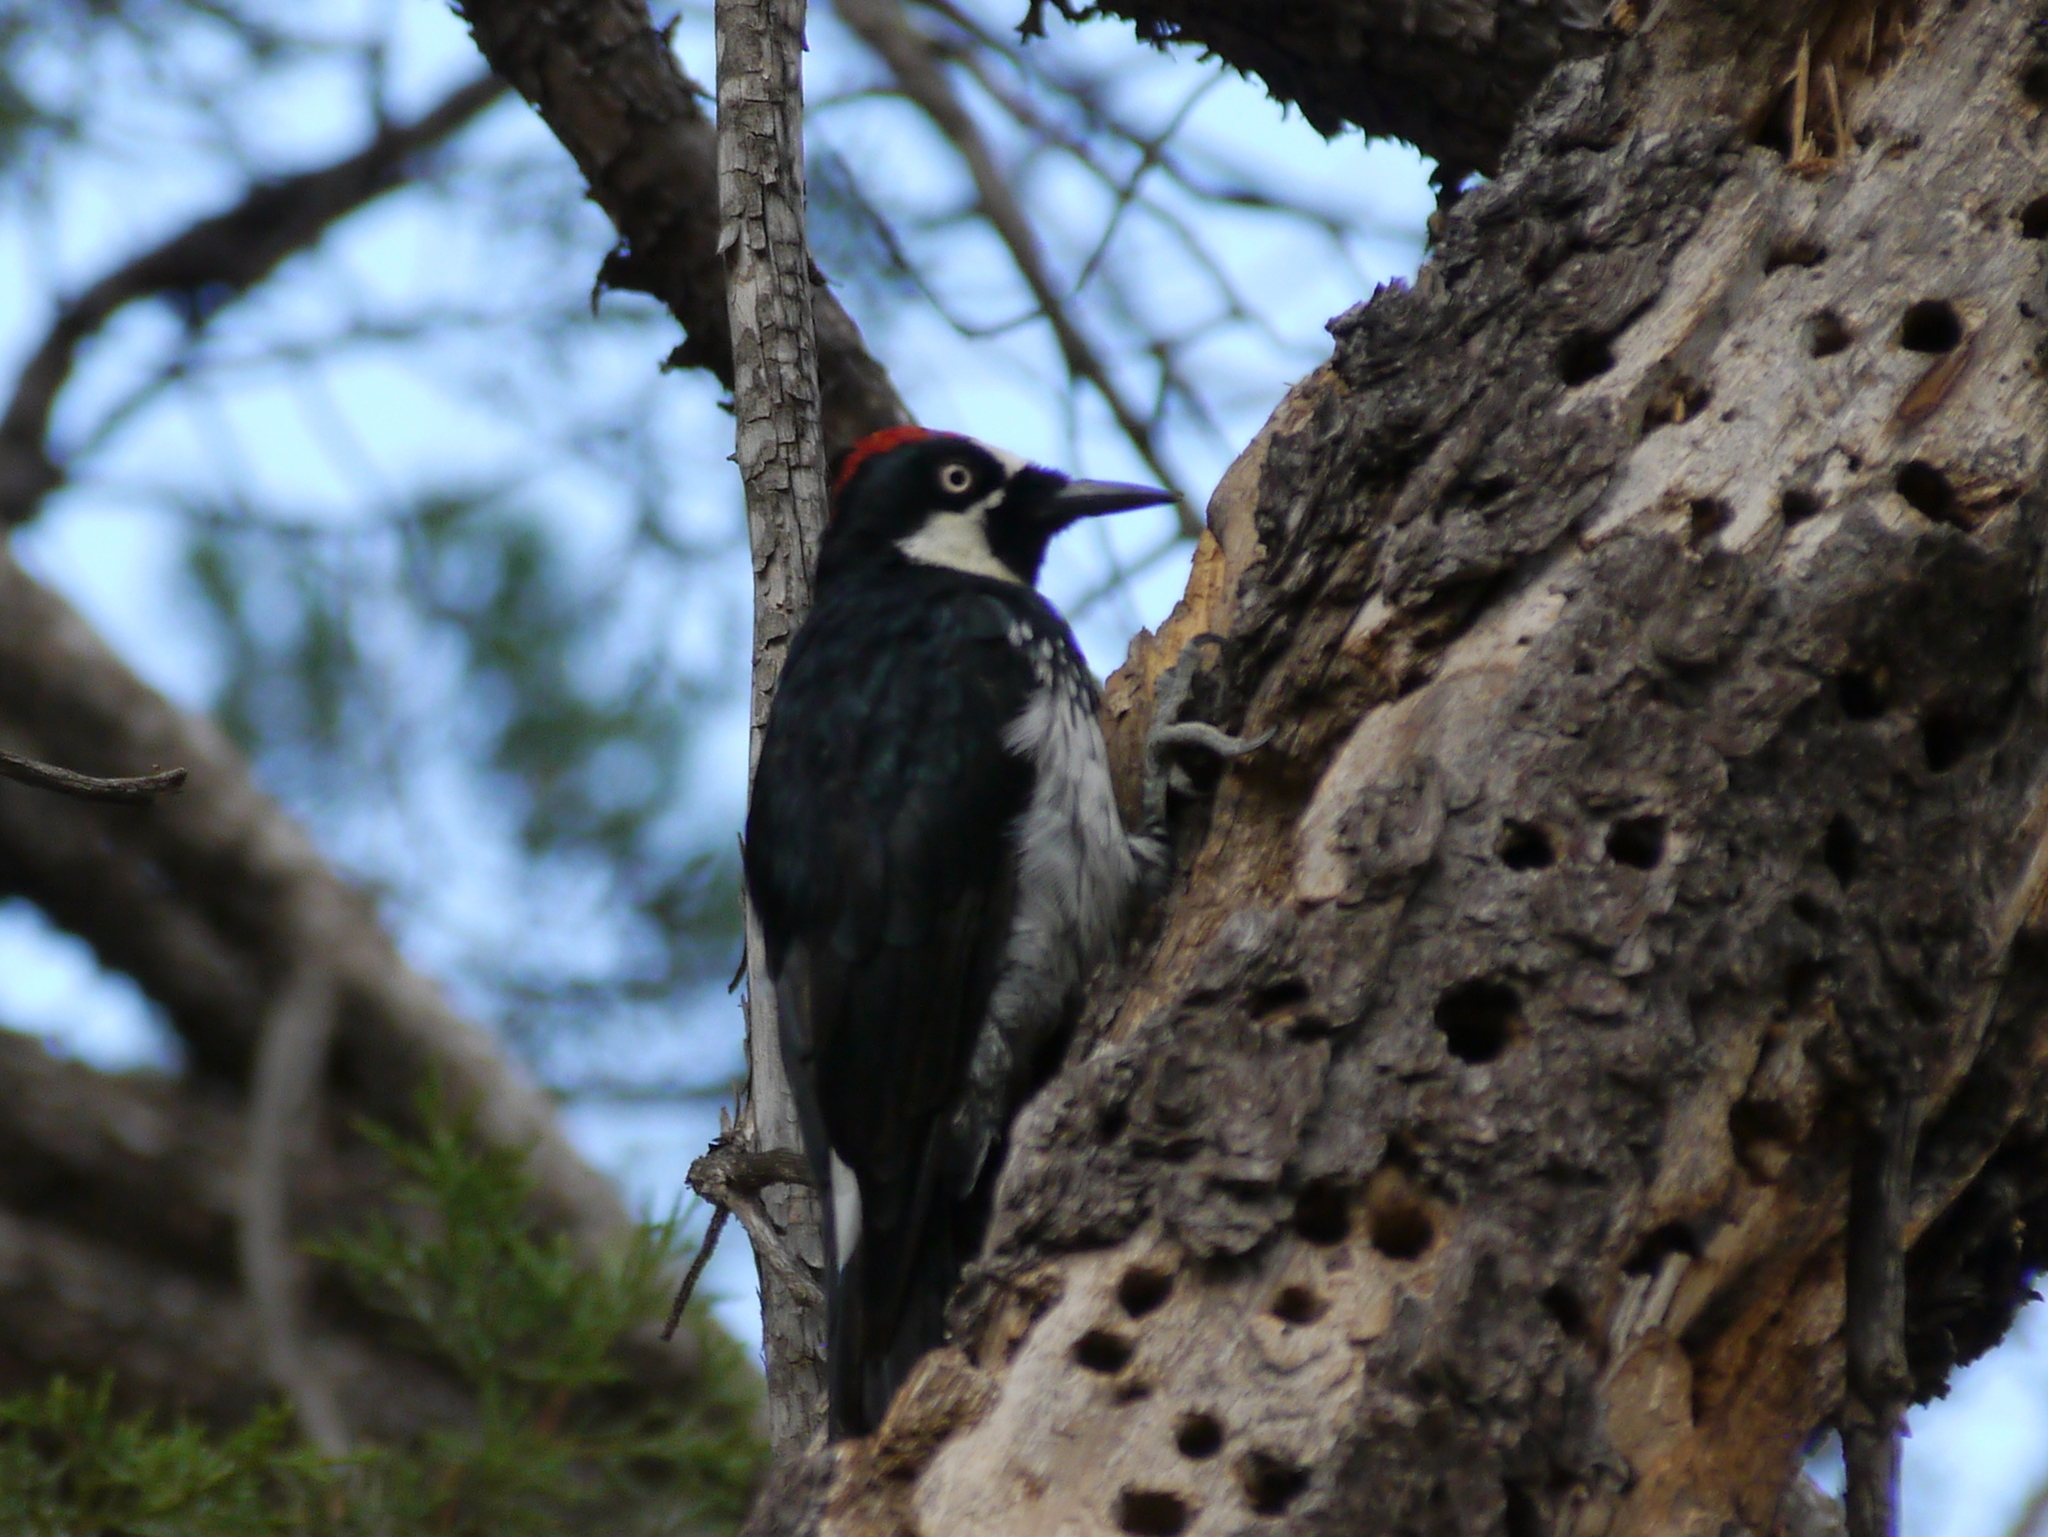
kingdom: Animalia
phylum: Chordata
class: Aves
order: Piciformes
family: Picidae
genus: Melanerpes
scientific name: Melanerpes formicivorus
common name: Acorn woodpecker
